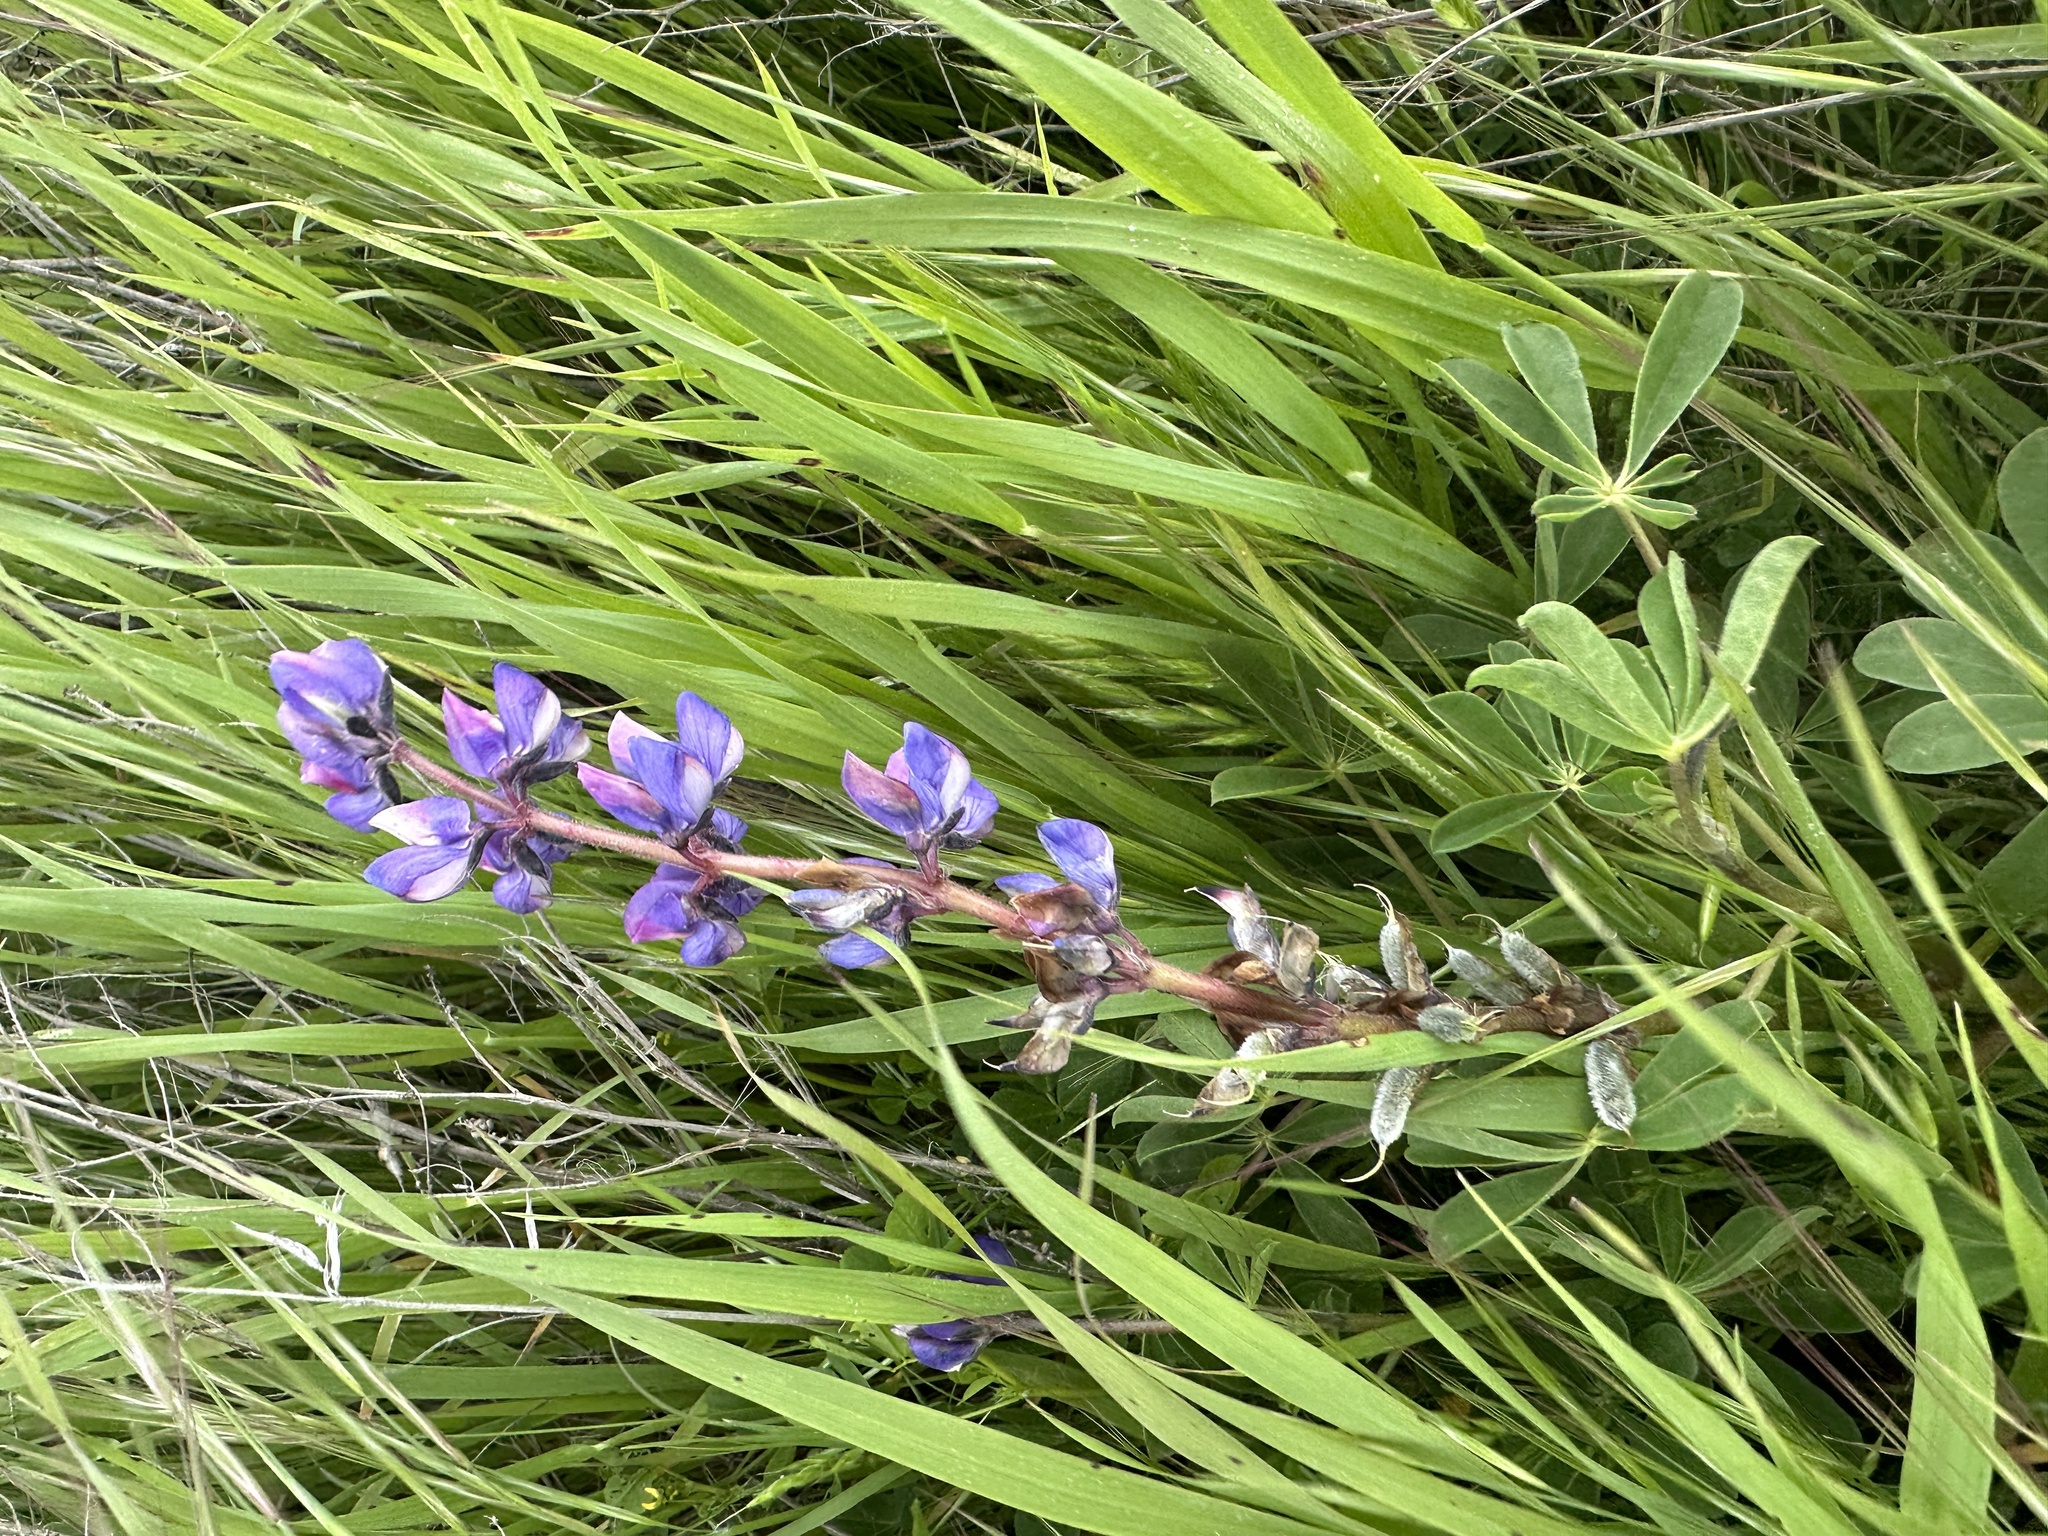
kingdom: Plantae
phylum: Tracheophyta
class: Magnoliopsida
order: Fabales
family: Fabaceae
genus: Lupinus
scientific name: Lupinus succulentus
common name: Arroyo lupine
